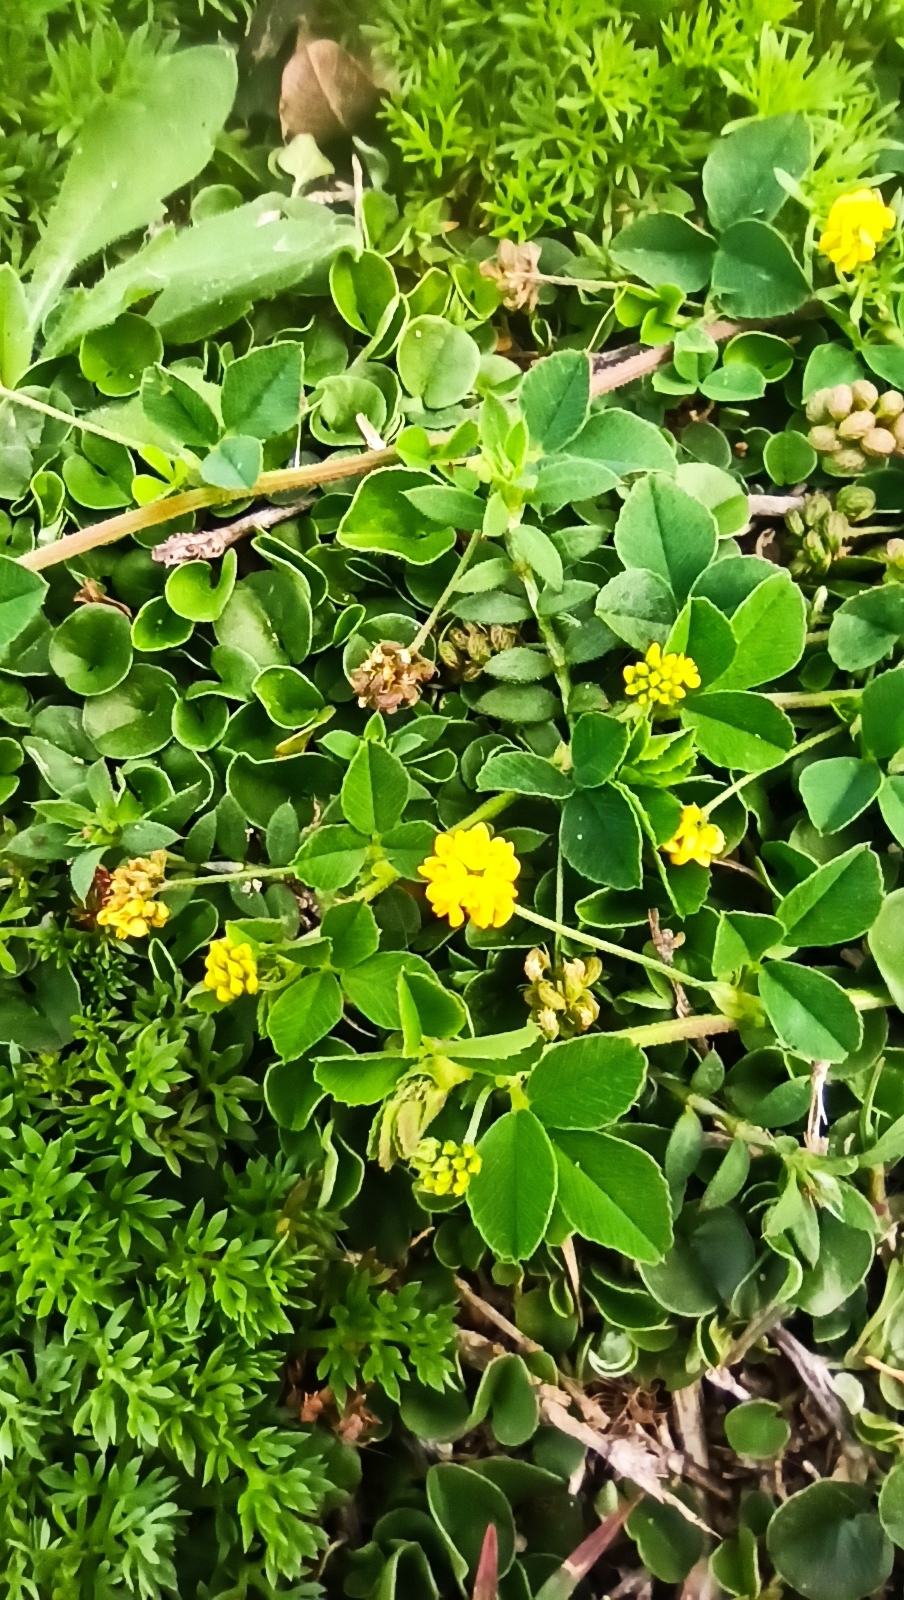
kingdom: Plantae
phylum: Tracheophyta
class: Magnoliopsida
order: Fabales
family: Fabaceae
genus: Medicago
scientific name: Medicago lupulina
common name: Black medick
